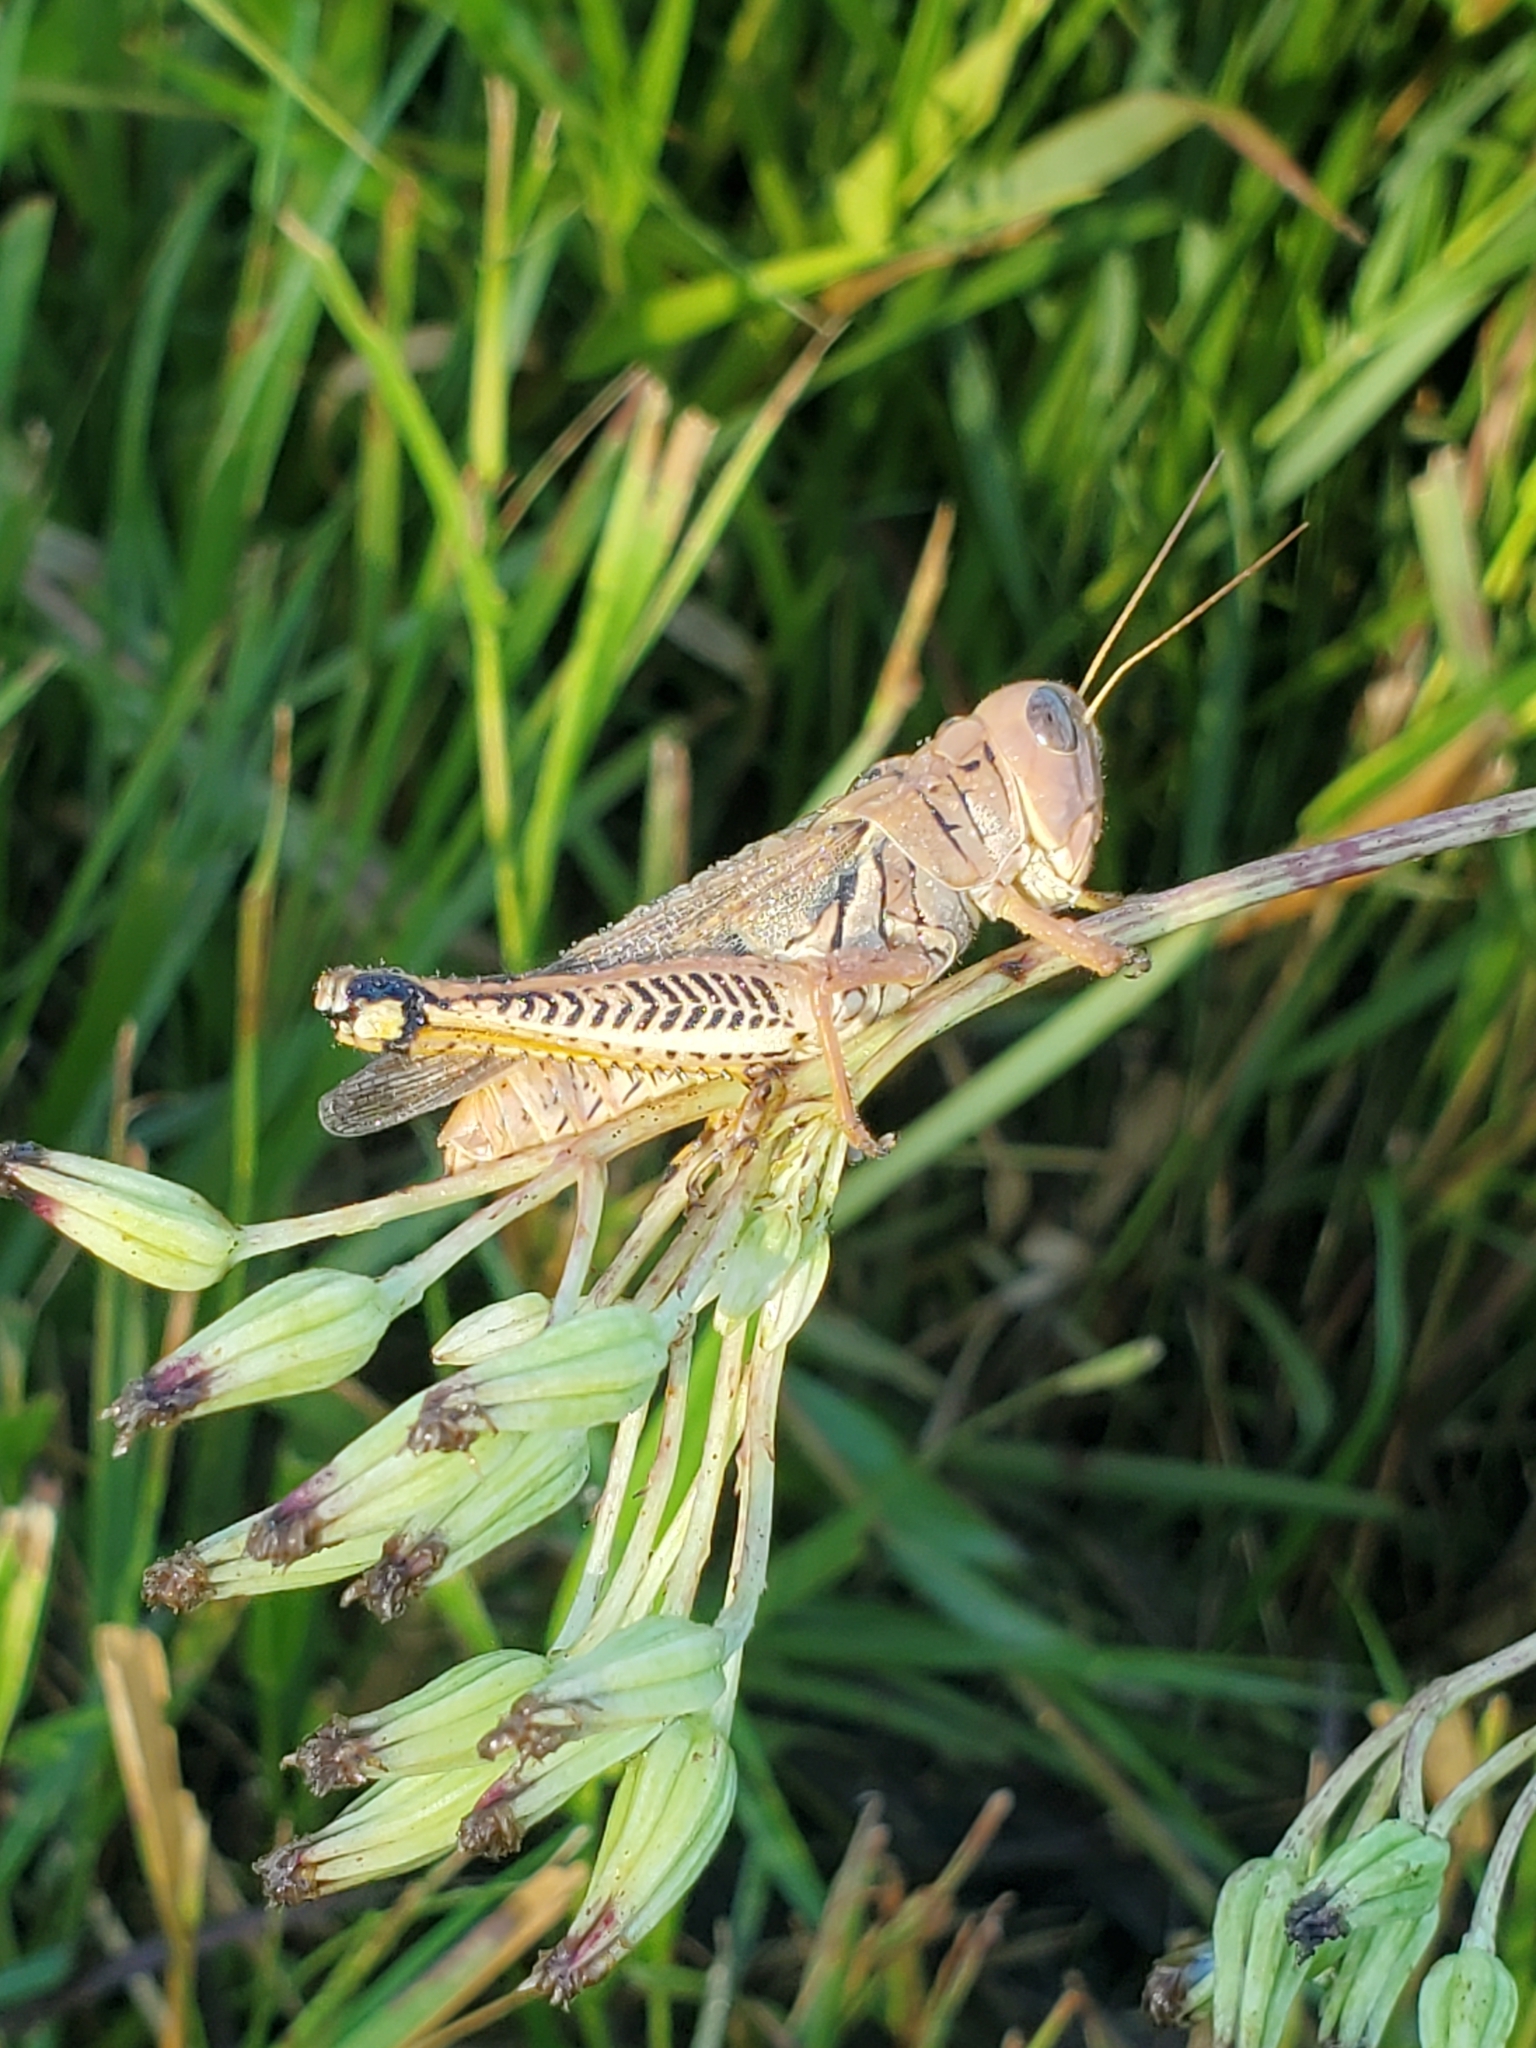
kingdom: Animalia
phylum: Arthropoda
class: Insecta
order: Orthoptera
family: Acrididae
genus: Melanoplus
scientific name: Melanoplus differentialis
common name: Differential grasshopper
